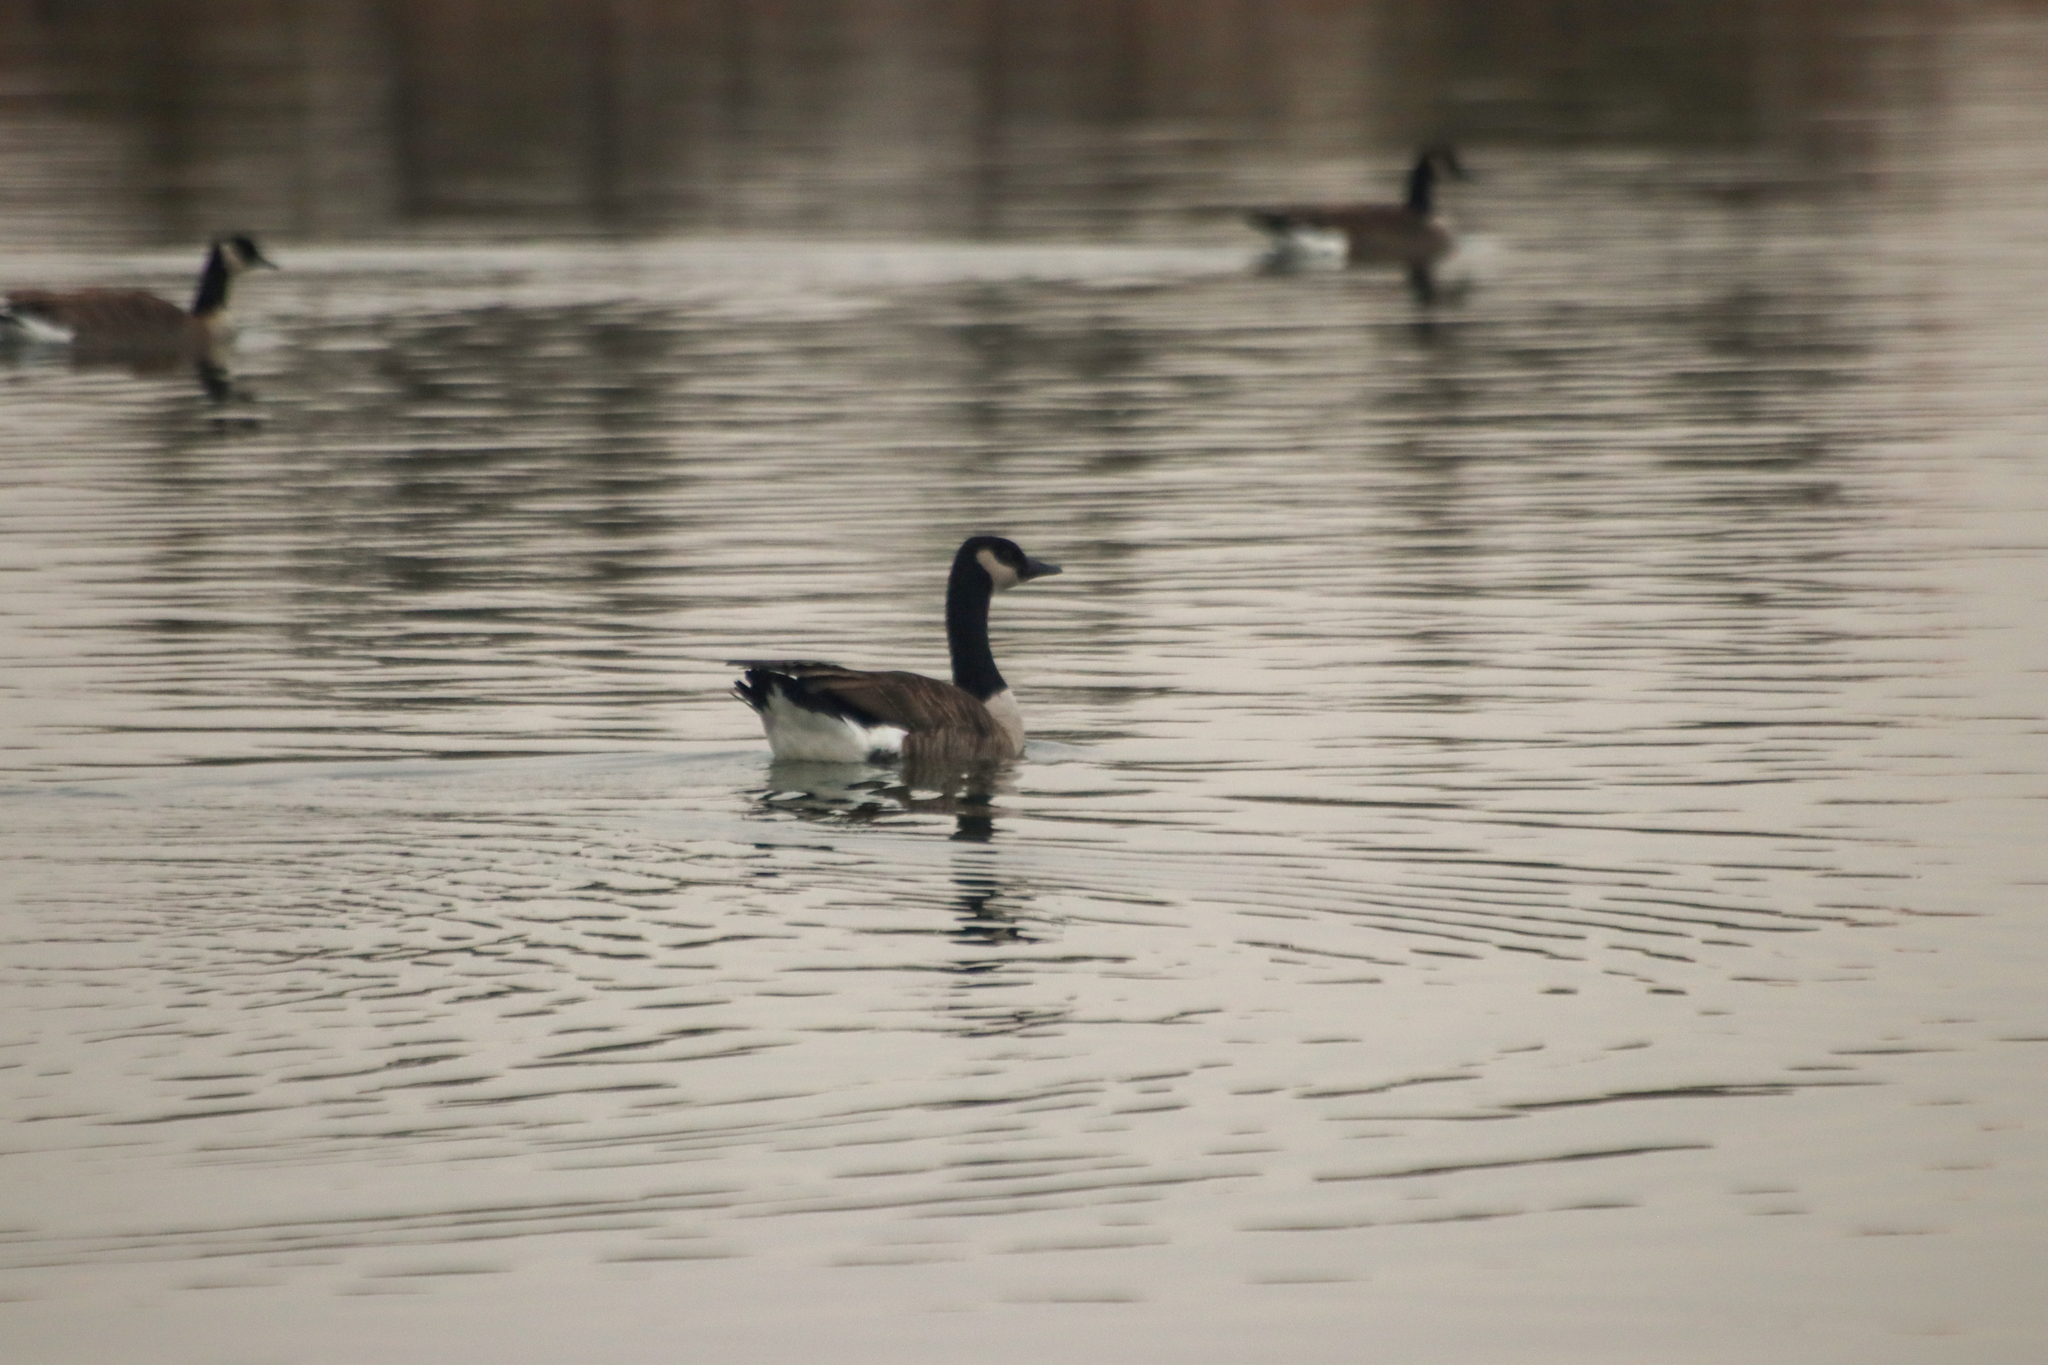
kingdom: Animalia
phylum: Chordata
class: Aves
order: Anseriformes
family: Anatidae
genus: Branta
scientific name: Branta canadensis
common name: Canada goose
